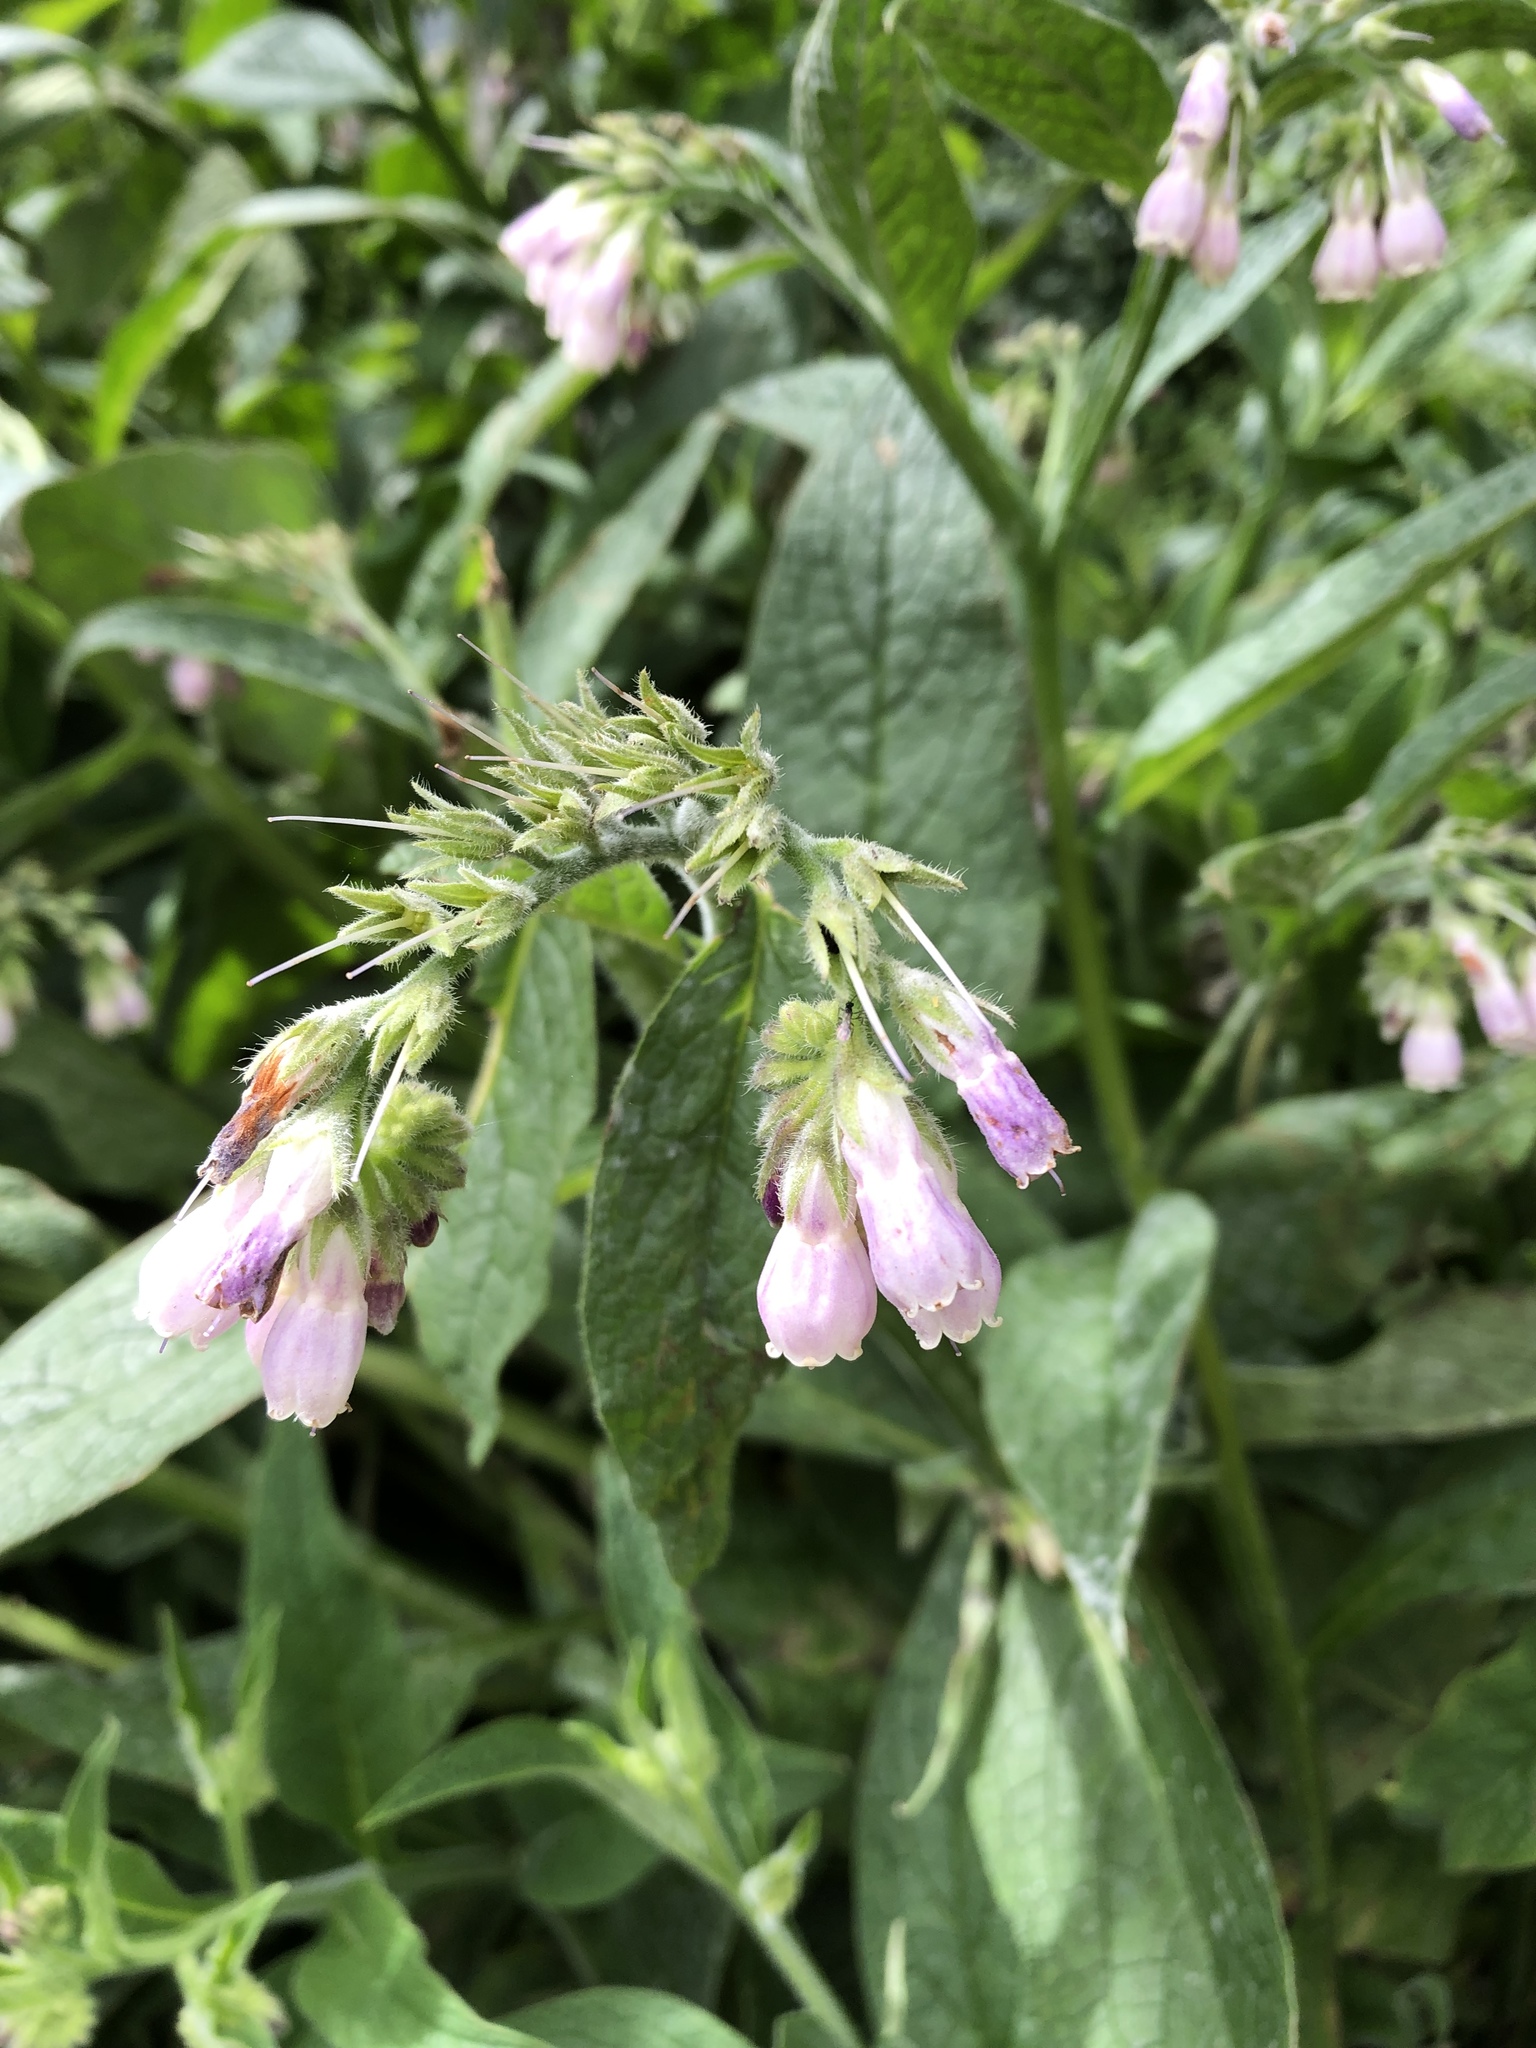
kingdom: Plantae
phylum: Tracheophyta
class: Magnoliopsida
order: Boraginales
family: Boraginaceae
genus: Symphytum
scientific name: Symphytum officinale
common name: Common comfrey
